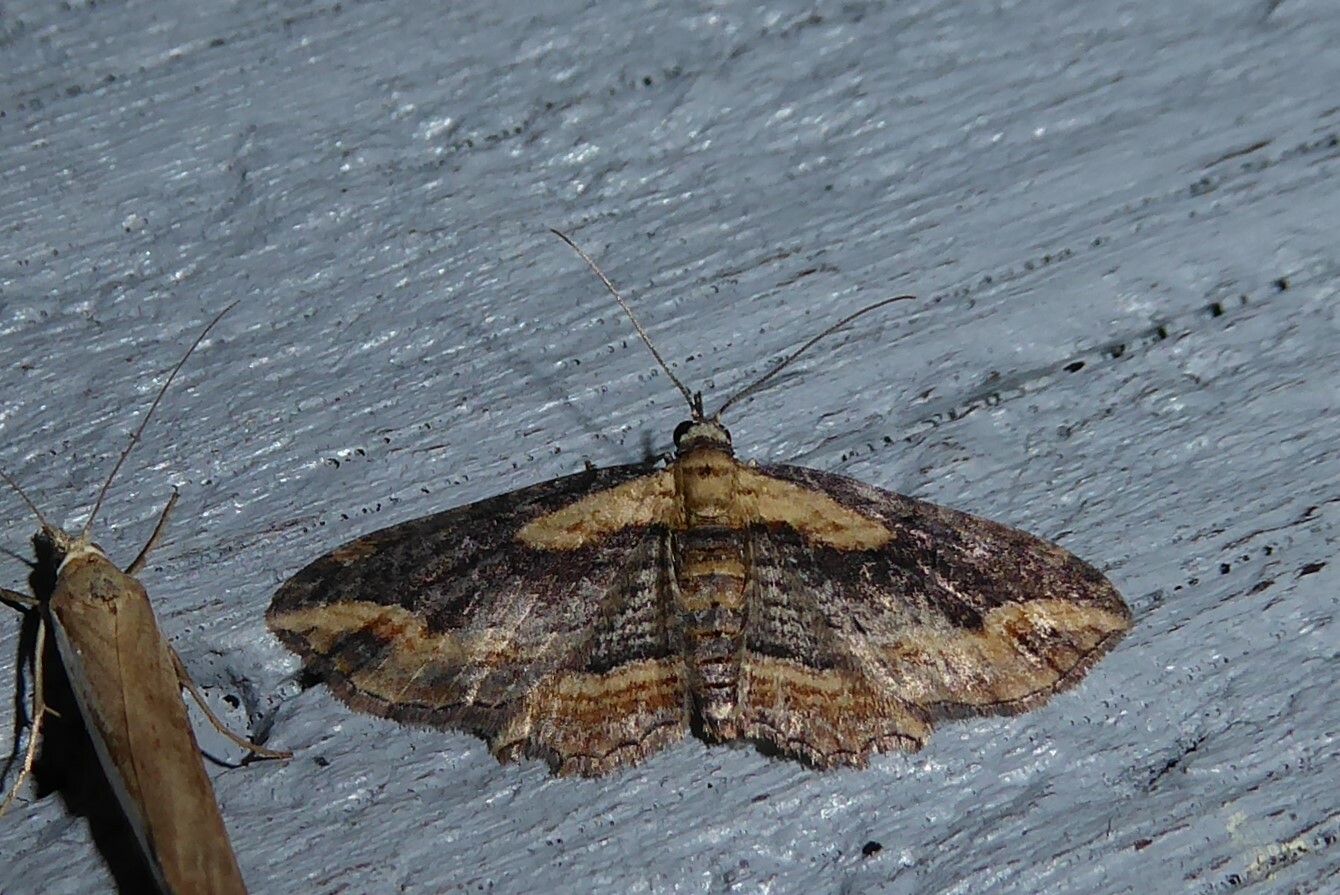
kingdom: Animalia
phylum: Arthropoda
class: Insecta
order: Lepidoptera
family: Geometridae
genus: Chloroclystis
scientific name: Chloroclystis filata
